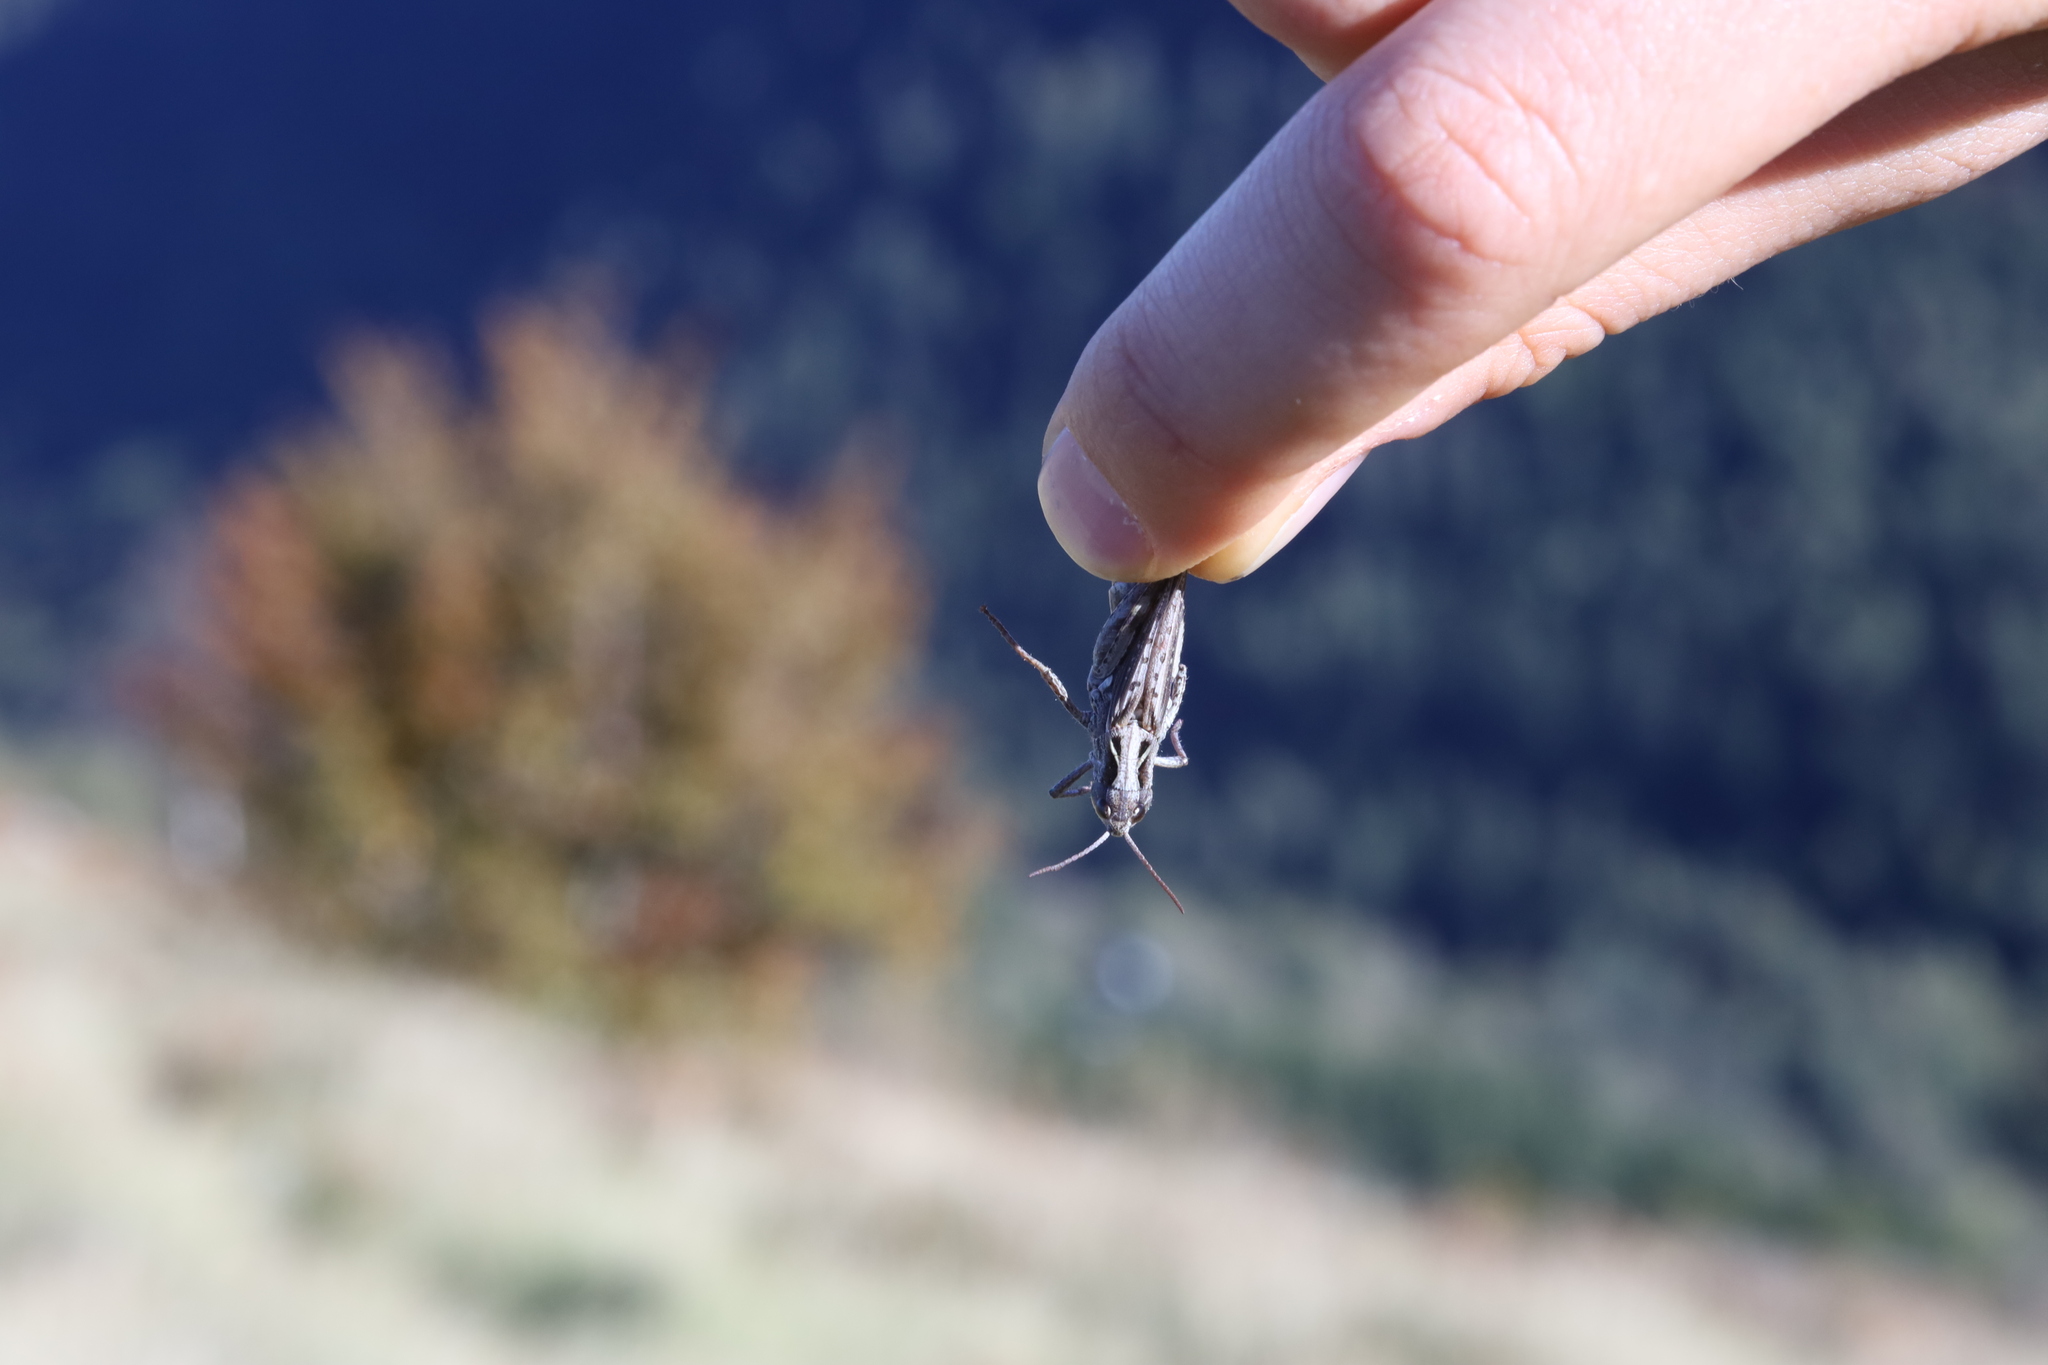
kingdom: Animalia
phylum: Arthropoda
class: Insecta
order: Orthoptera
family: Acrididae
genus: Chorthippus
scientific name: Chorthippus saulcyi
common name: French grasshopper
